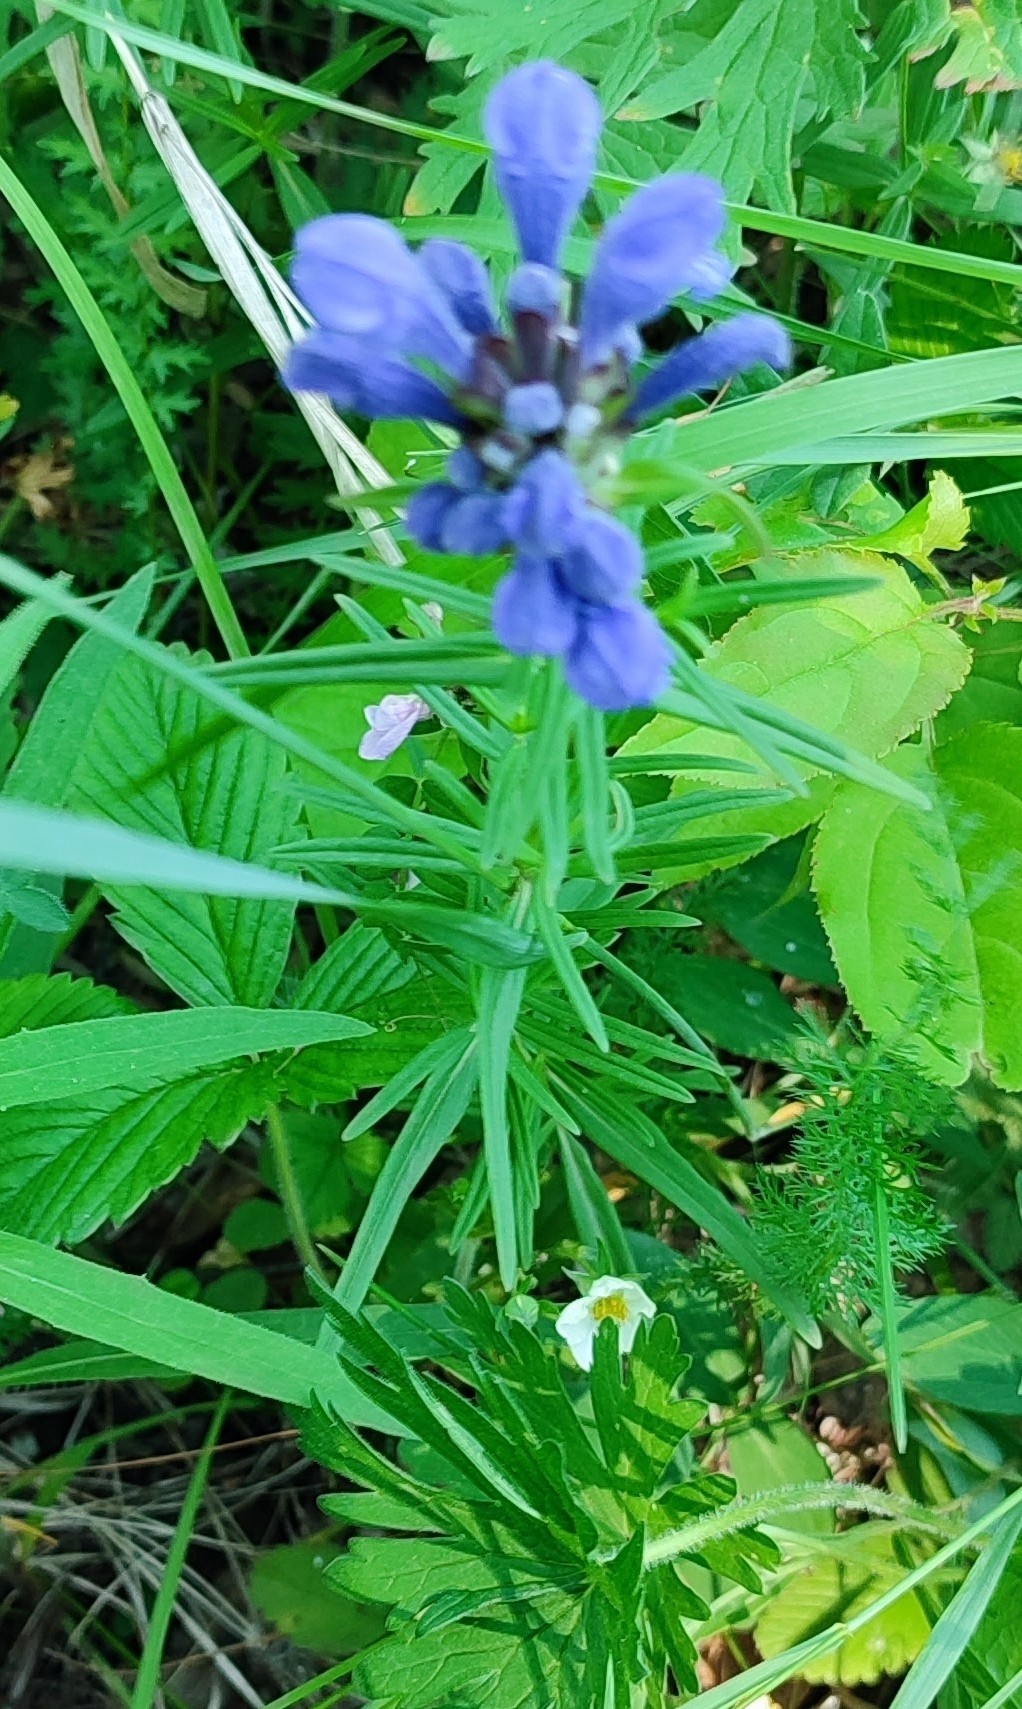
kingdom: Plantae
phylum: Tracheophyta
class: Magnoliopsida
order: Lamiales
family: Lamiaceae
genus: Dracocephalum
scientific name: Dracocephalum ruyschiana
